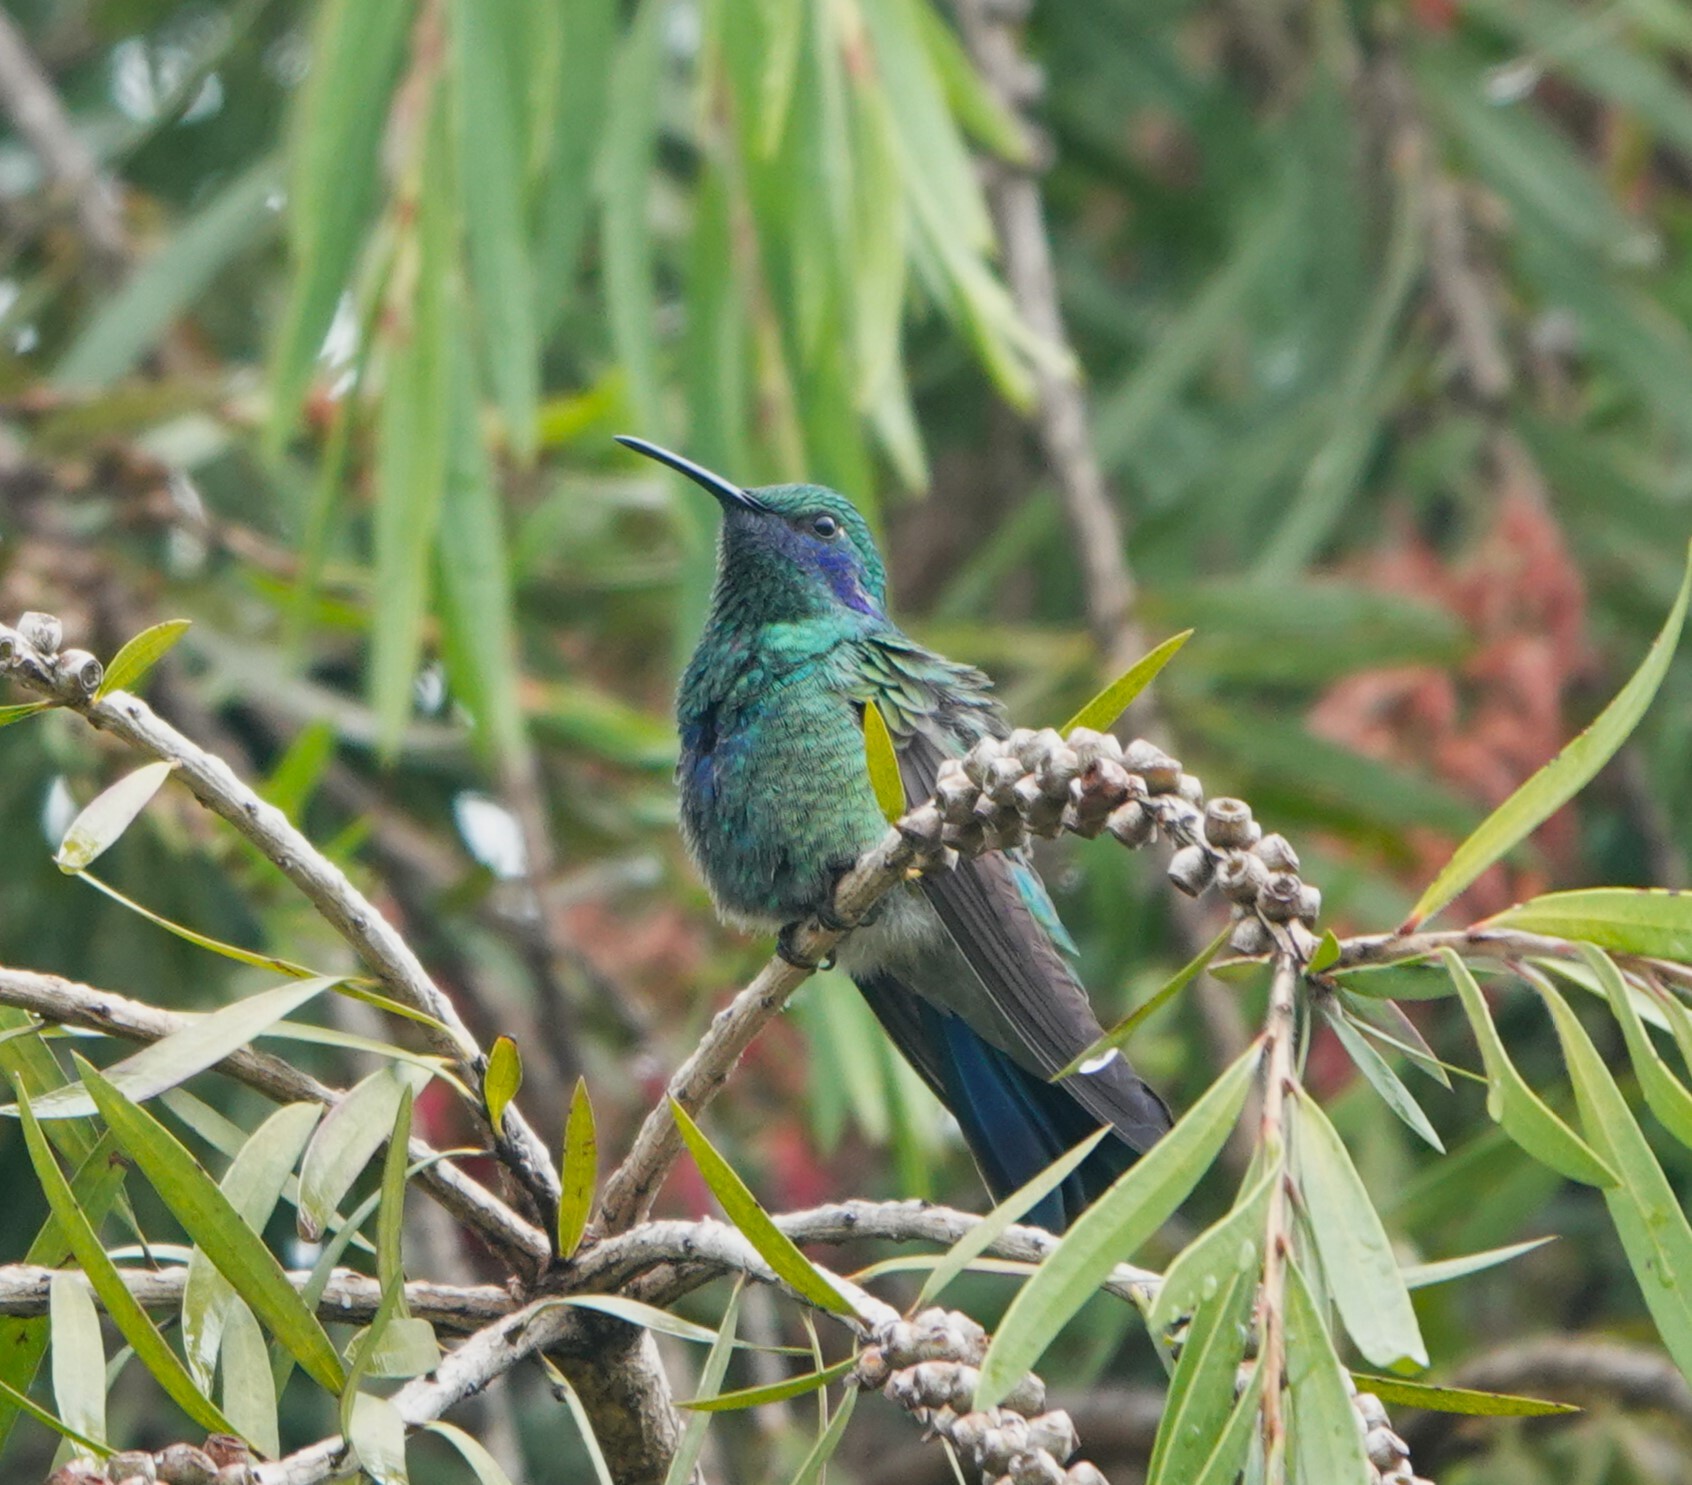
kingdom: Animalia
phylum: Chordata
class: Aves
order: Apodiformes
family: Trochilidae
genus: Colibri
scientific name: Colibri coruscans
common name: Sparkling violetear
